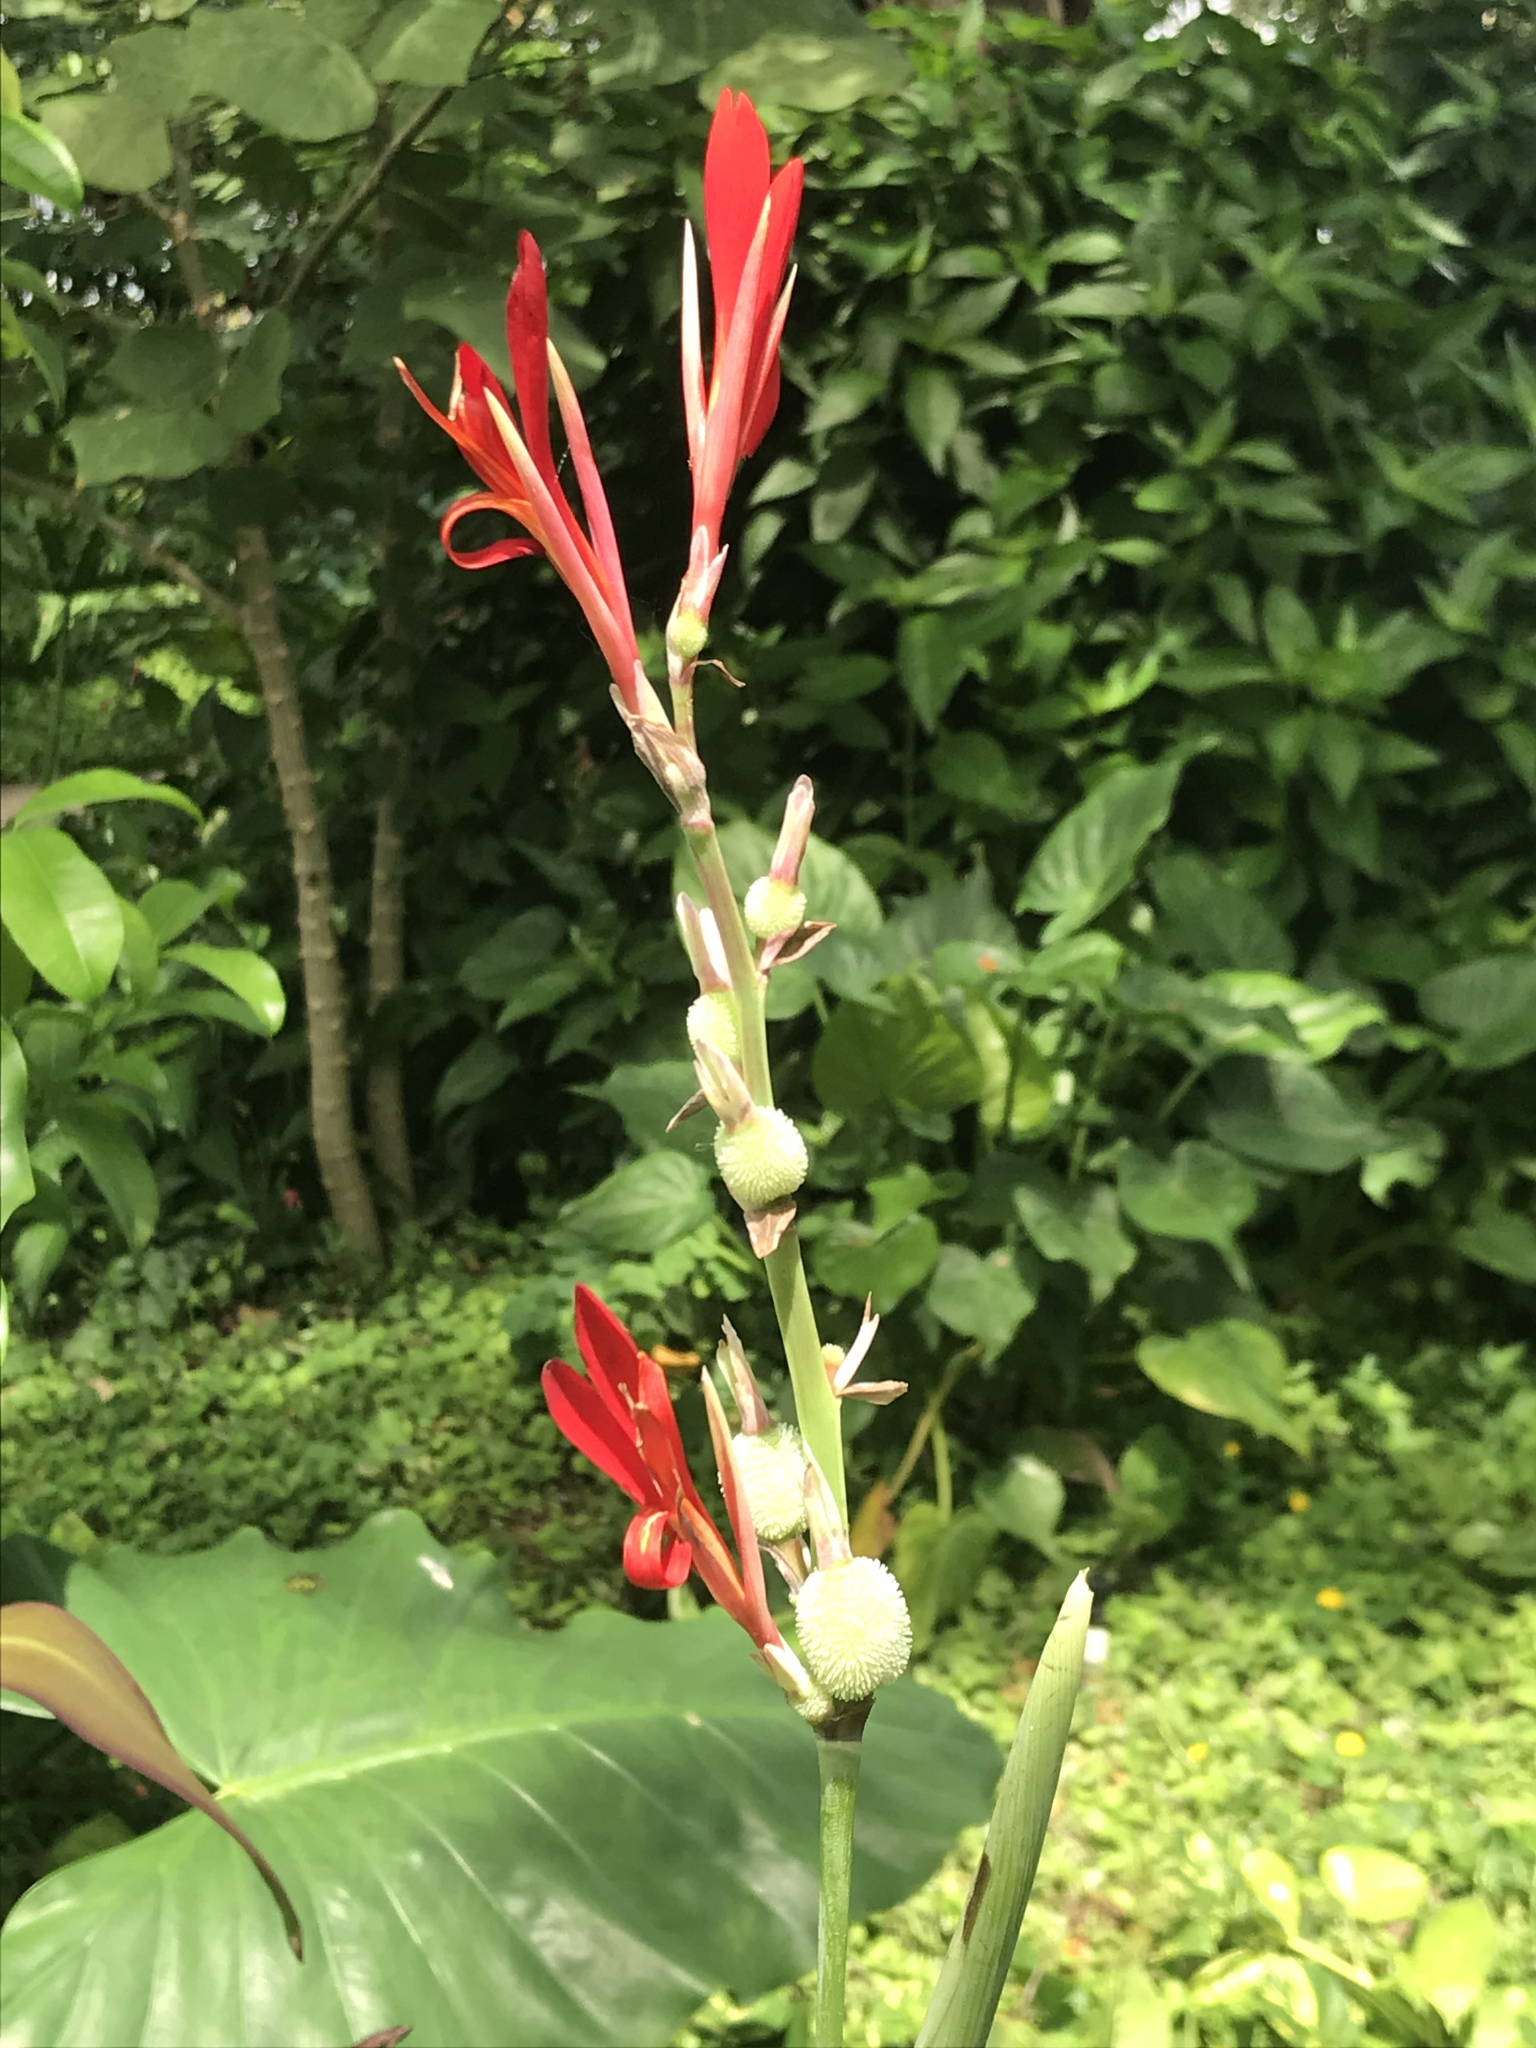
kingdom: Plantae
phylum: Tracheophyta
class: Liliopsida
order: Zingiberales
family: Cannaceae
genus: Canna
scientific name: Canna indica
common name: Indian shot
